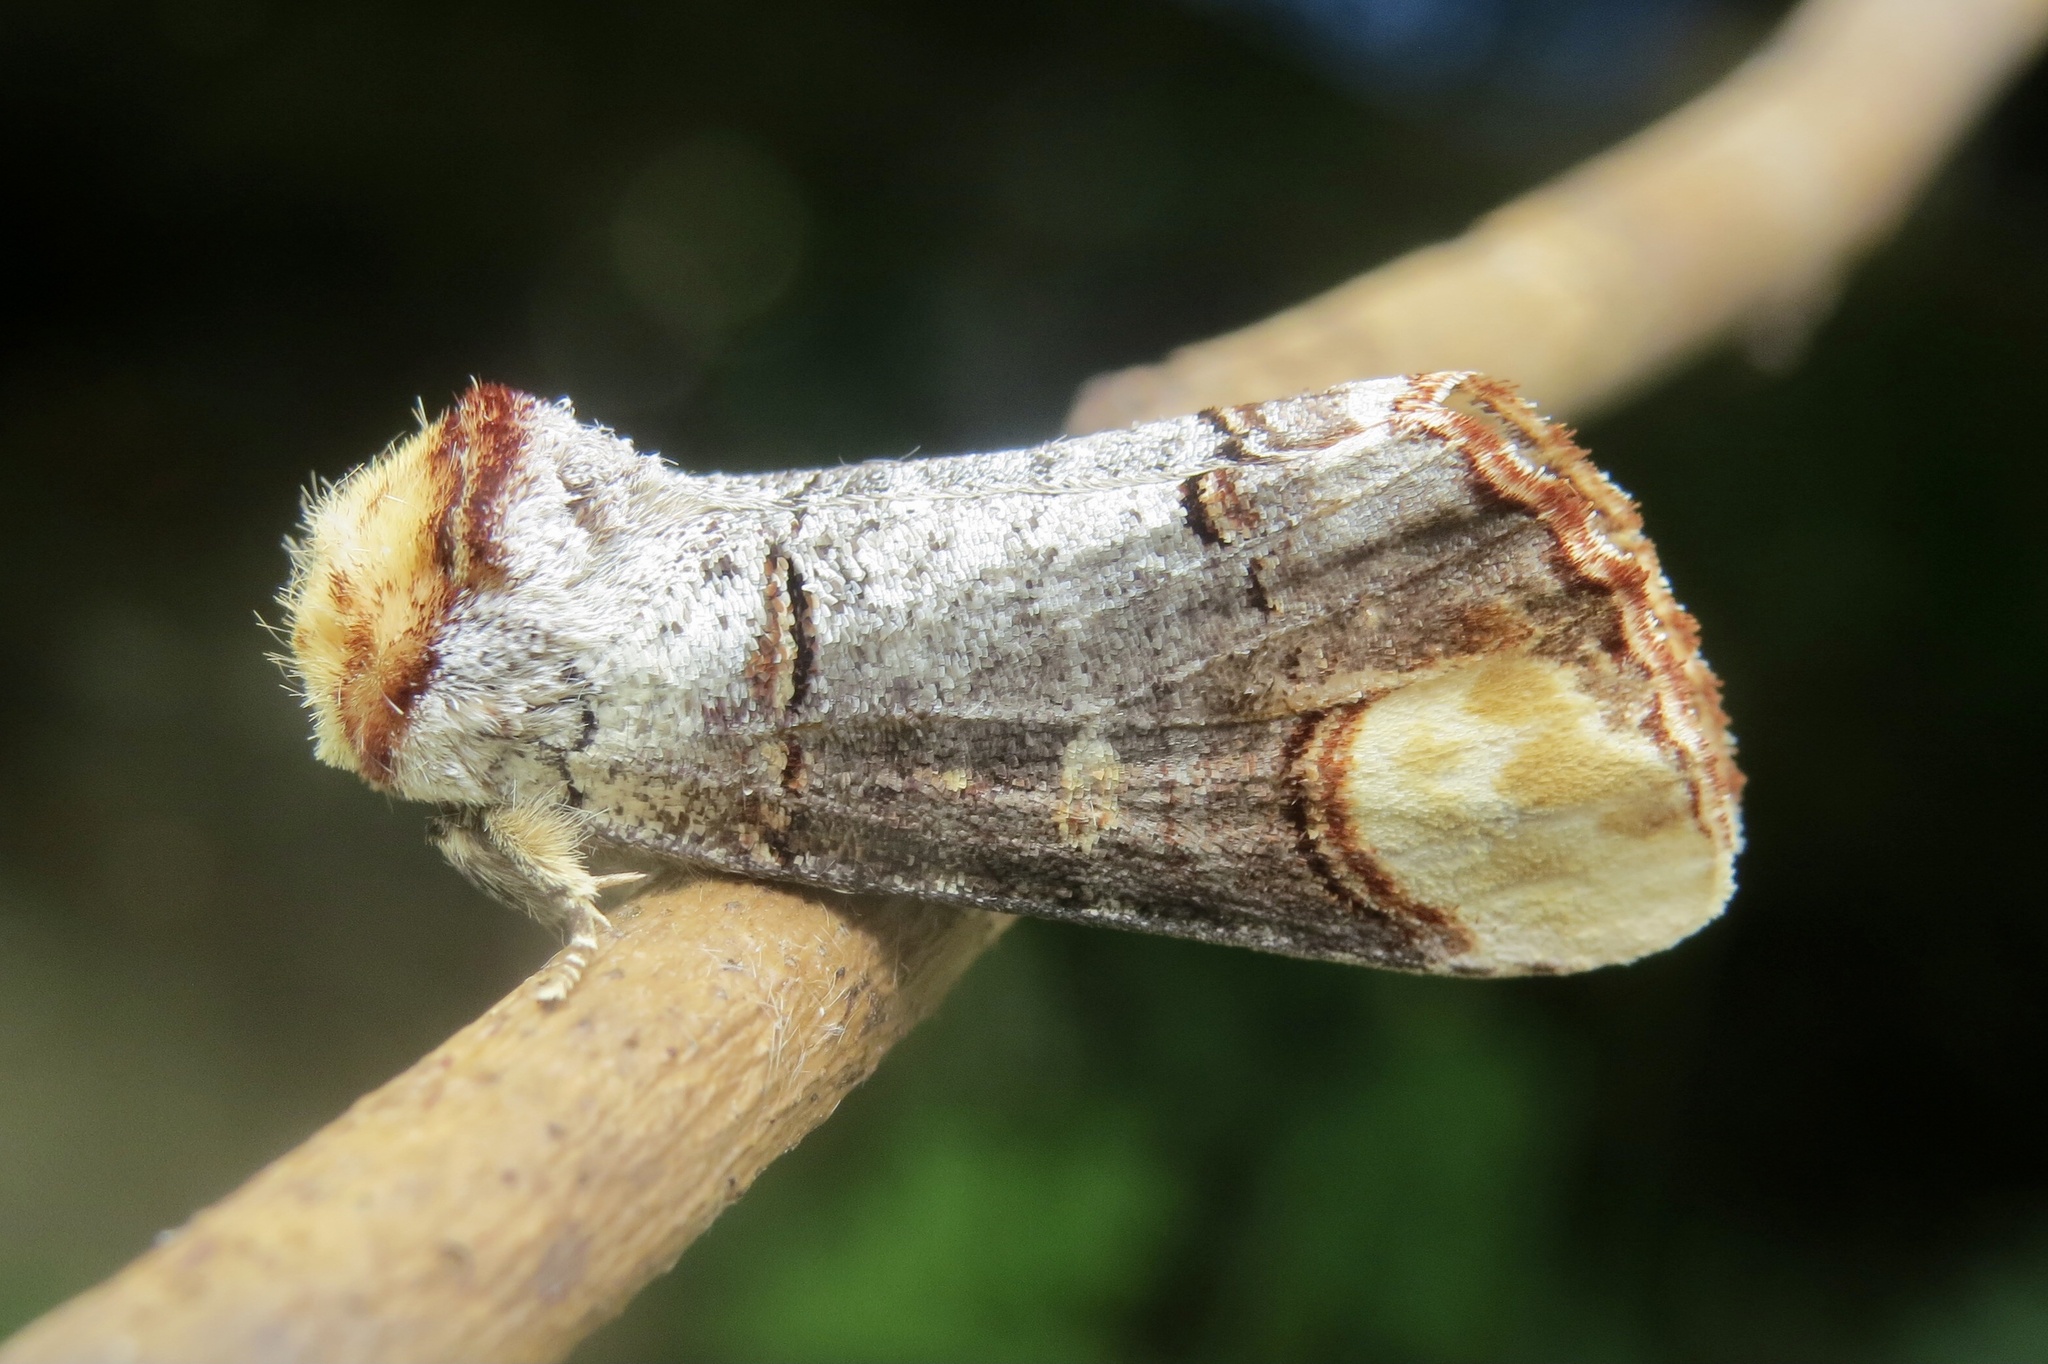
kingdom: Animalia
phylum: Arthropoda
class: Insecta
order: Lepidoptera
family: Notodontidae
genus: Phalera
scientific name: Phalera bucephala
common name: Buff-tip
